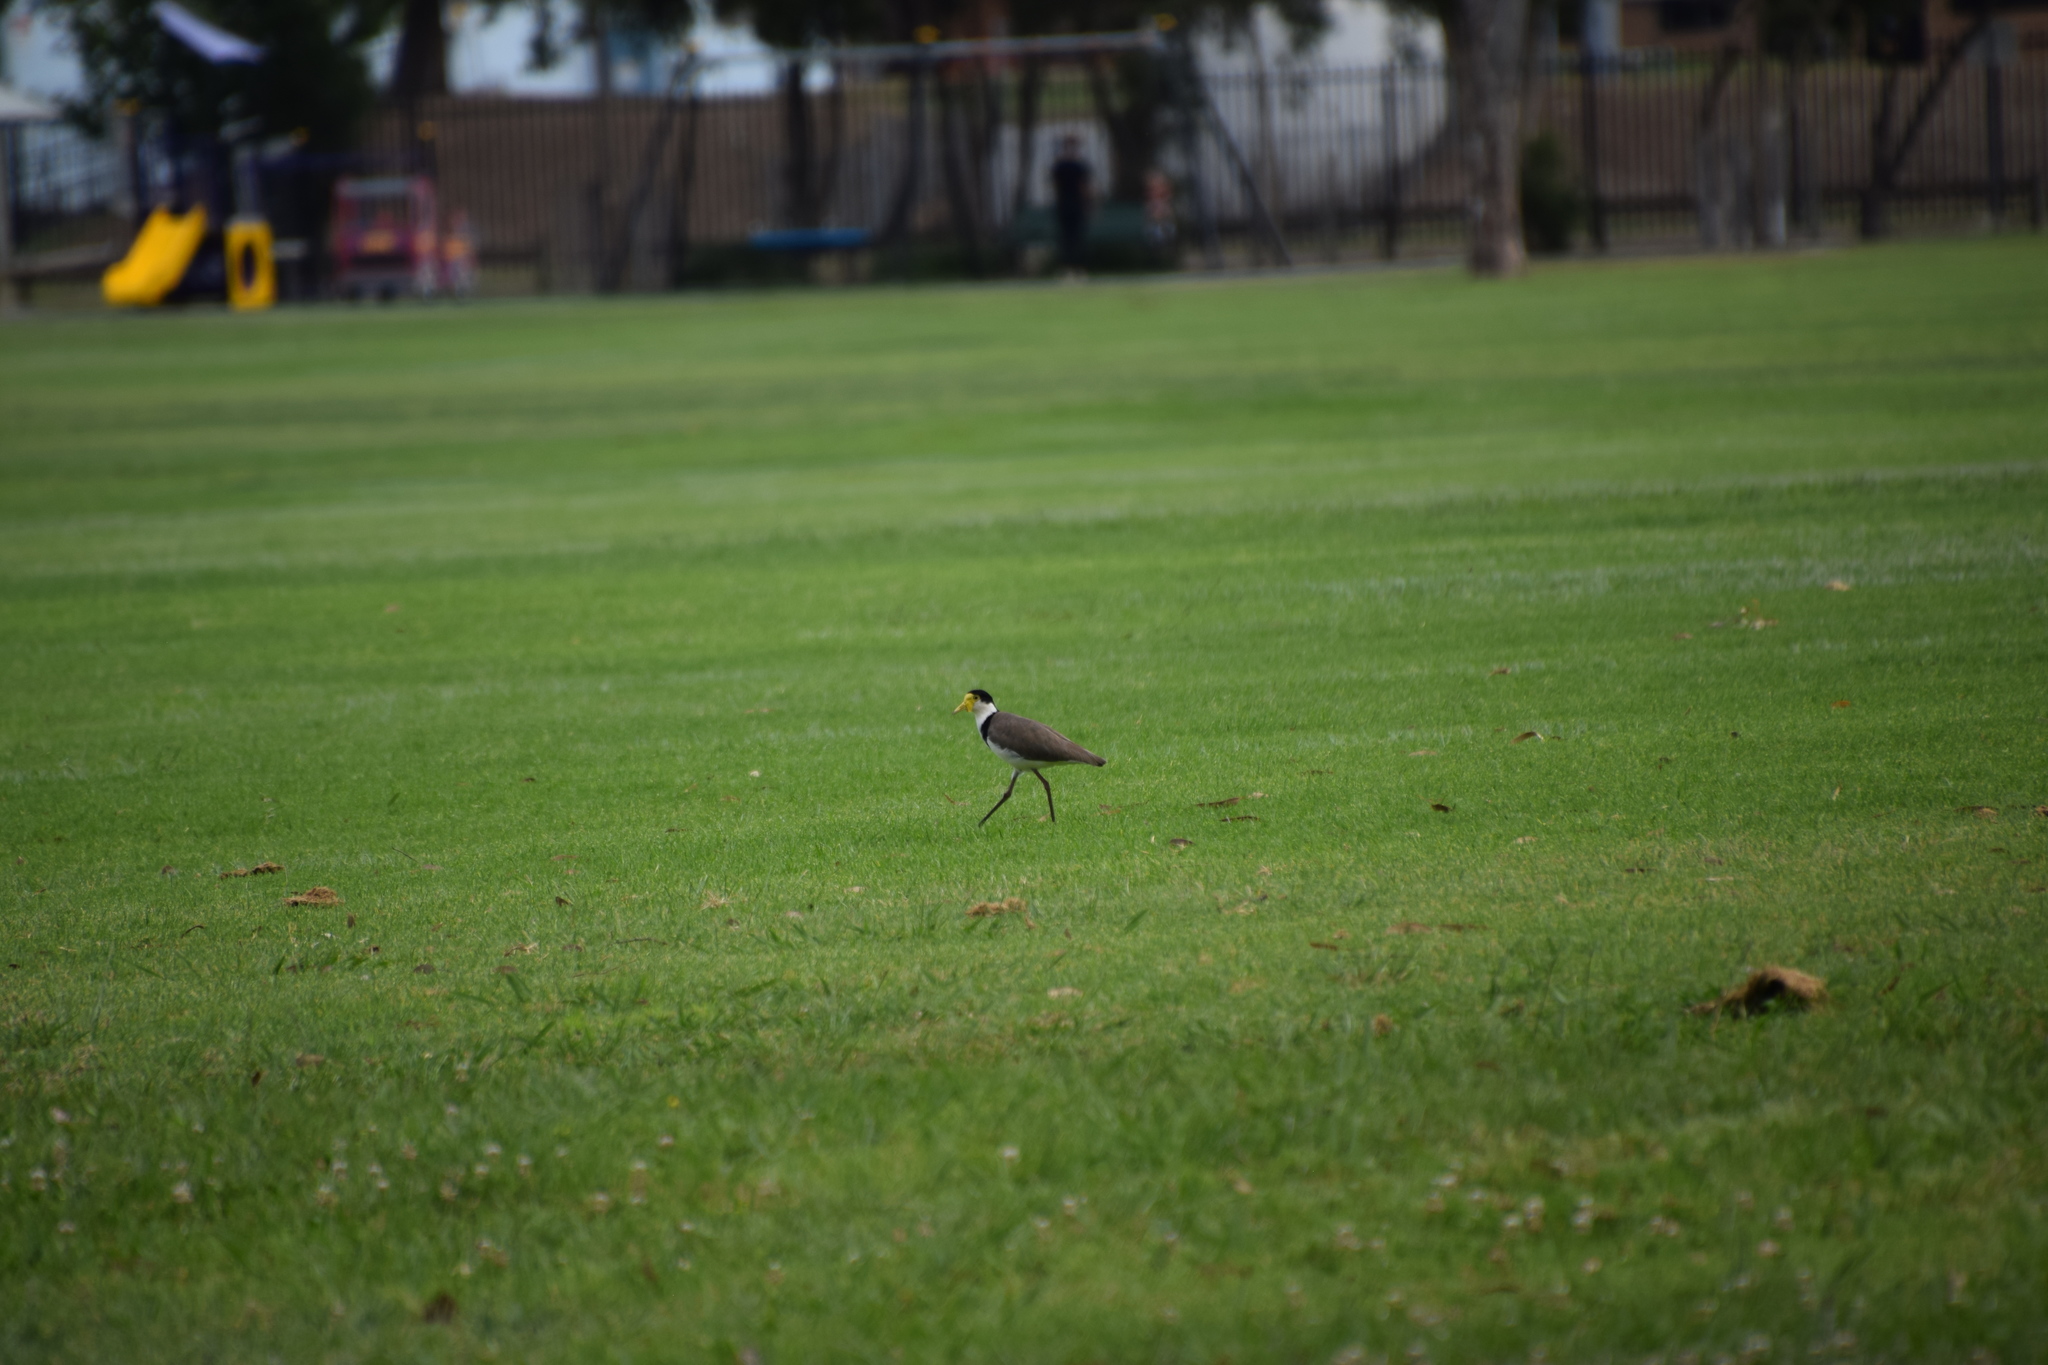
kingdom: Animalia
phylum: Chordata
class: Aves
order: Charadriiformes
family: Charadriidae
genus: Vanellus
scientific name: Vanellus miles
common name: Masked lapwing
